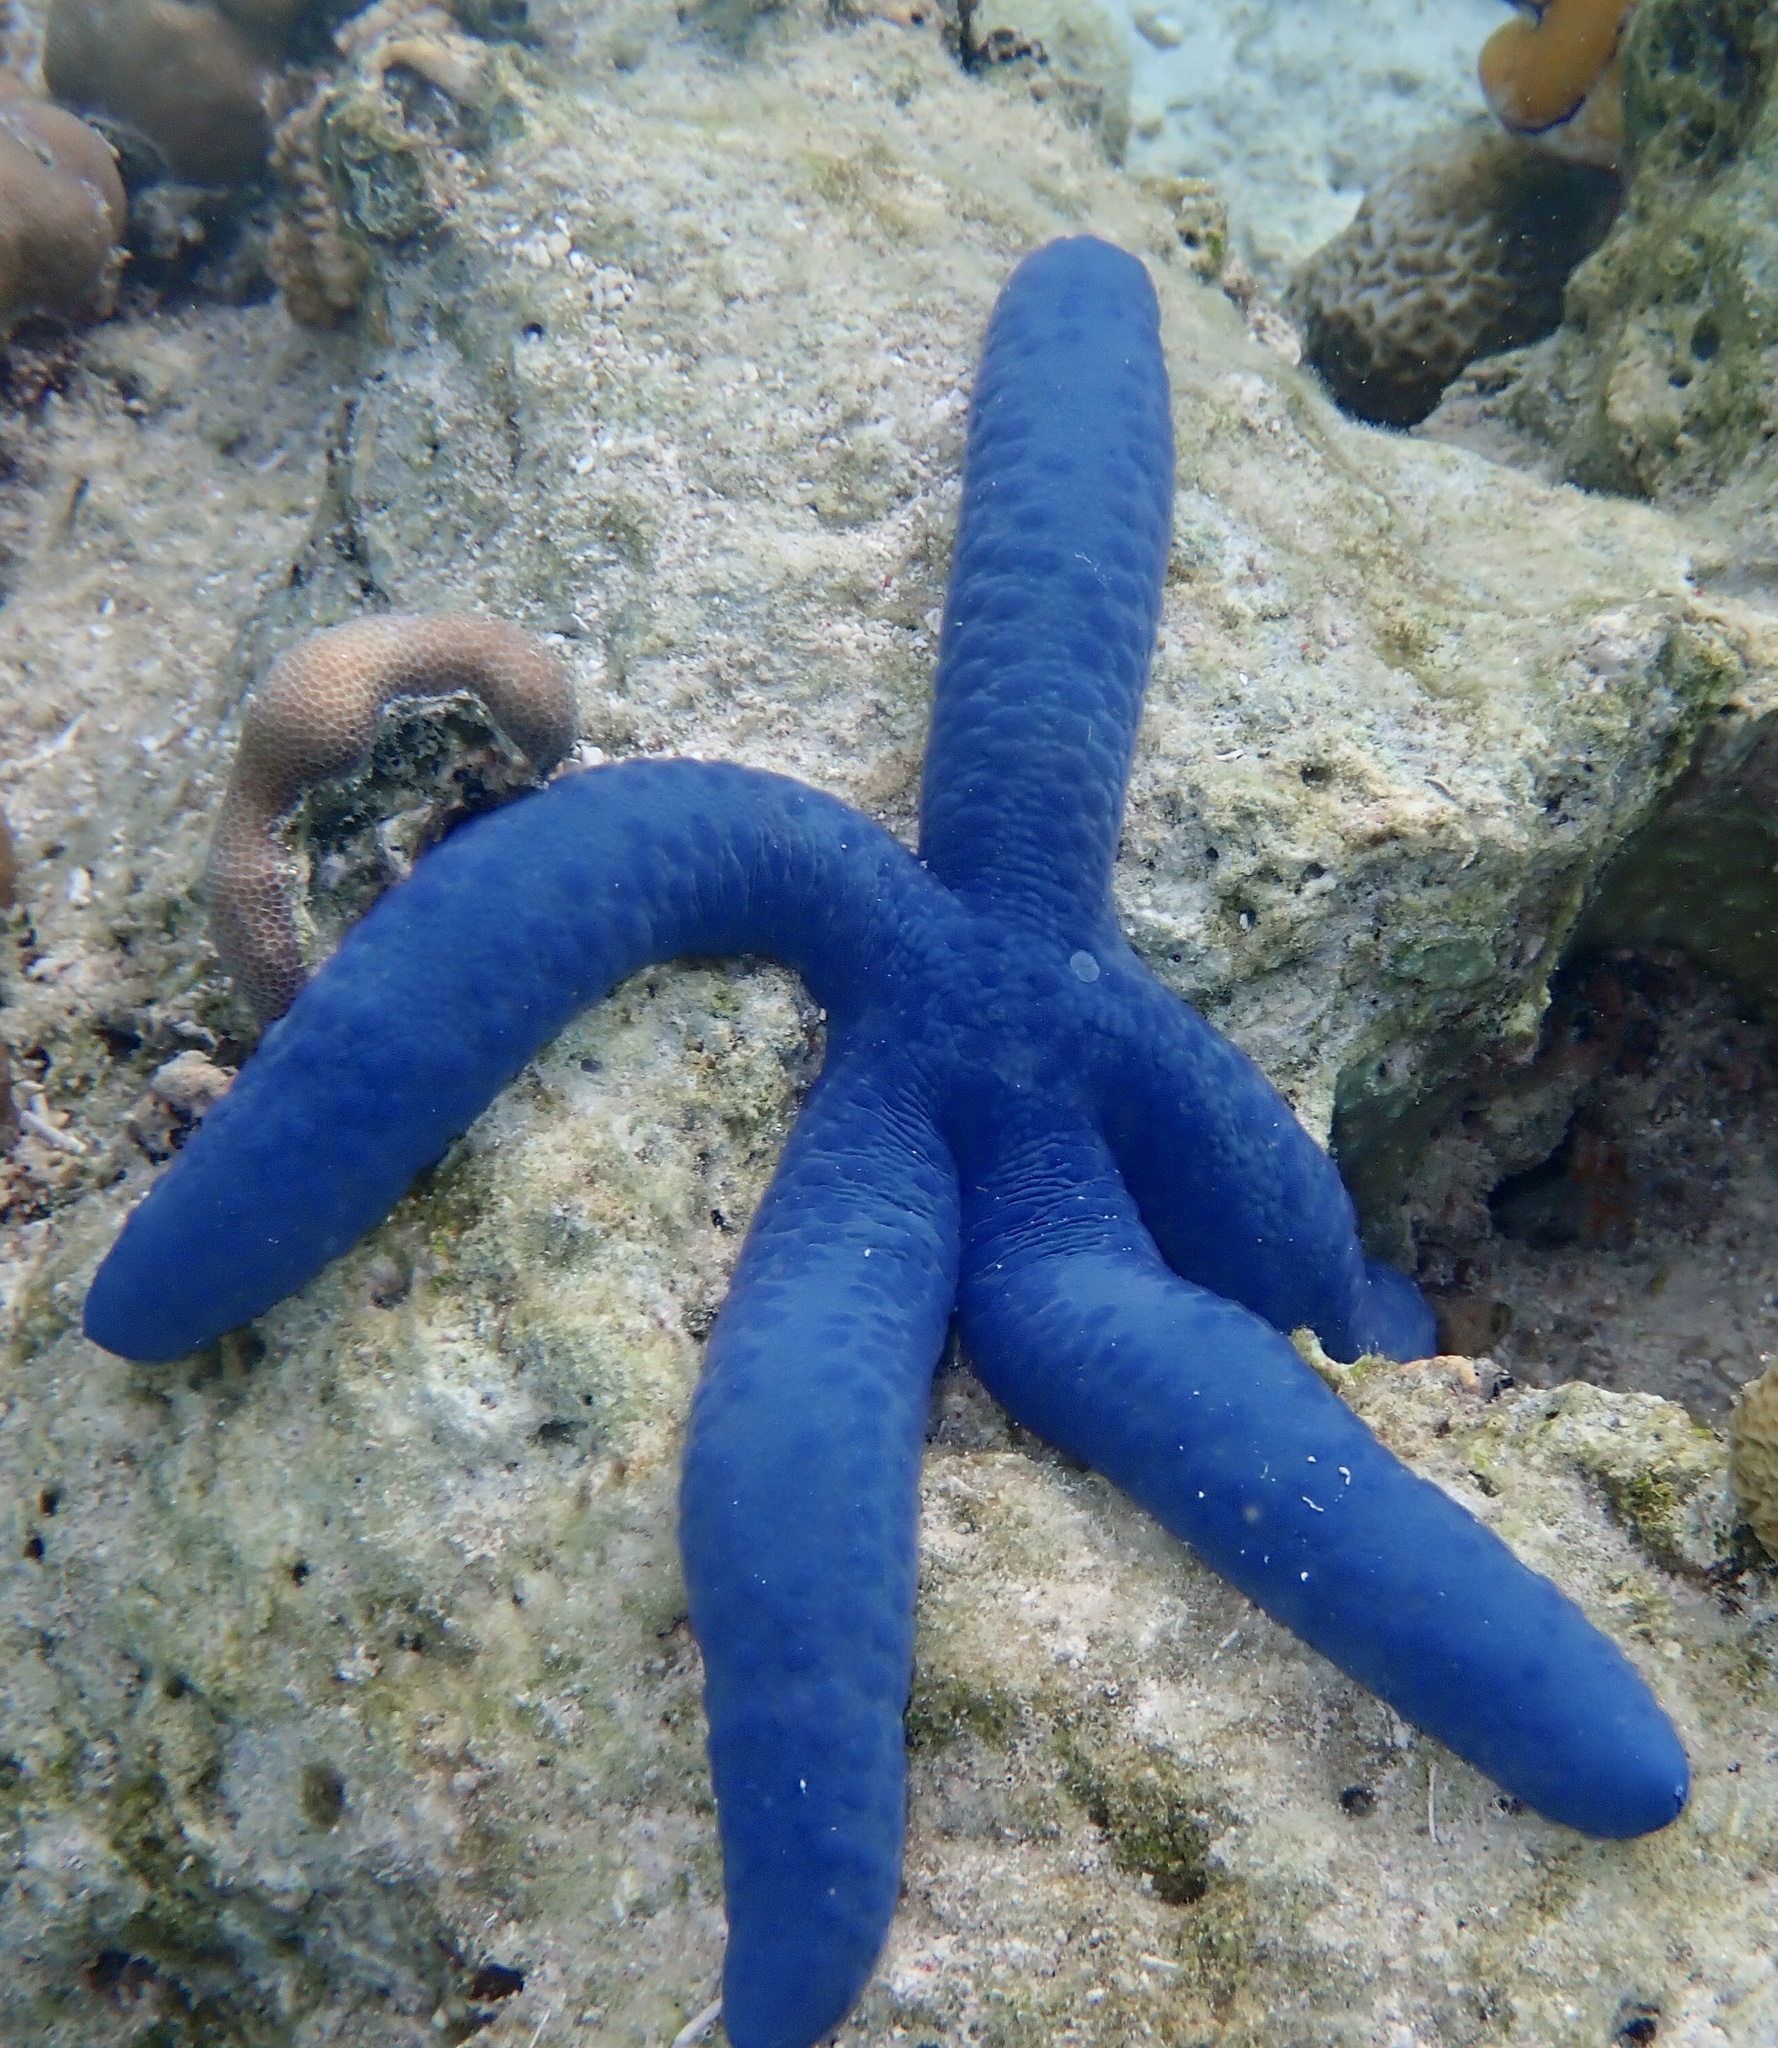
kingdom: Animalia
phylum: Echinodermata
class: Asteroidea
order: Valvatida
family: Ophidiasteridae
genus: Linckia
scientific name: Linckia laevigata
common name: Azure sea star
